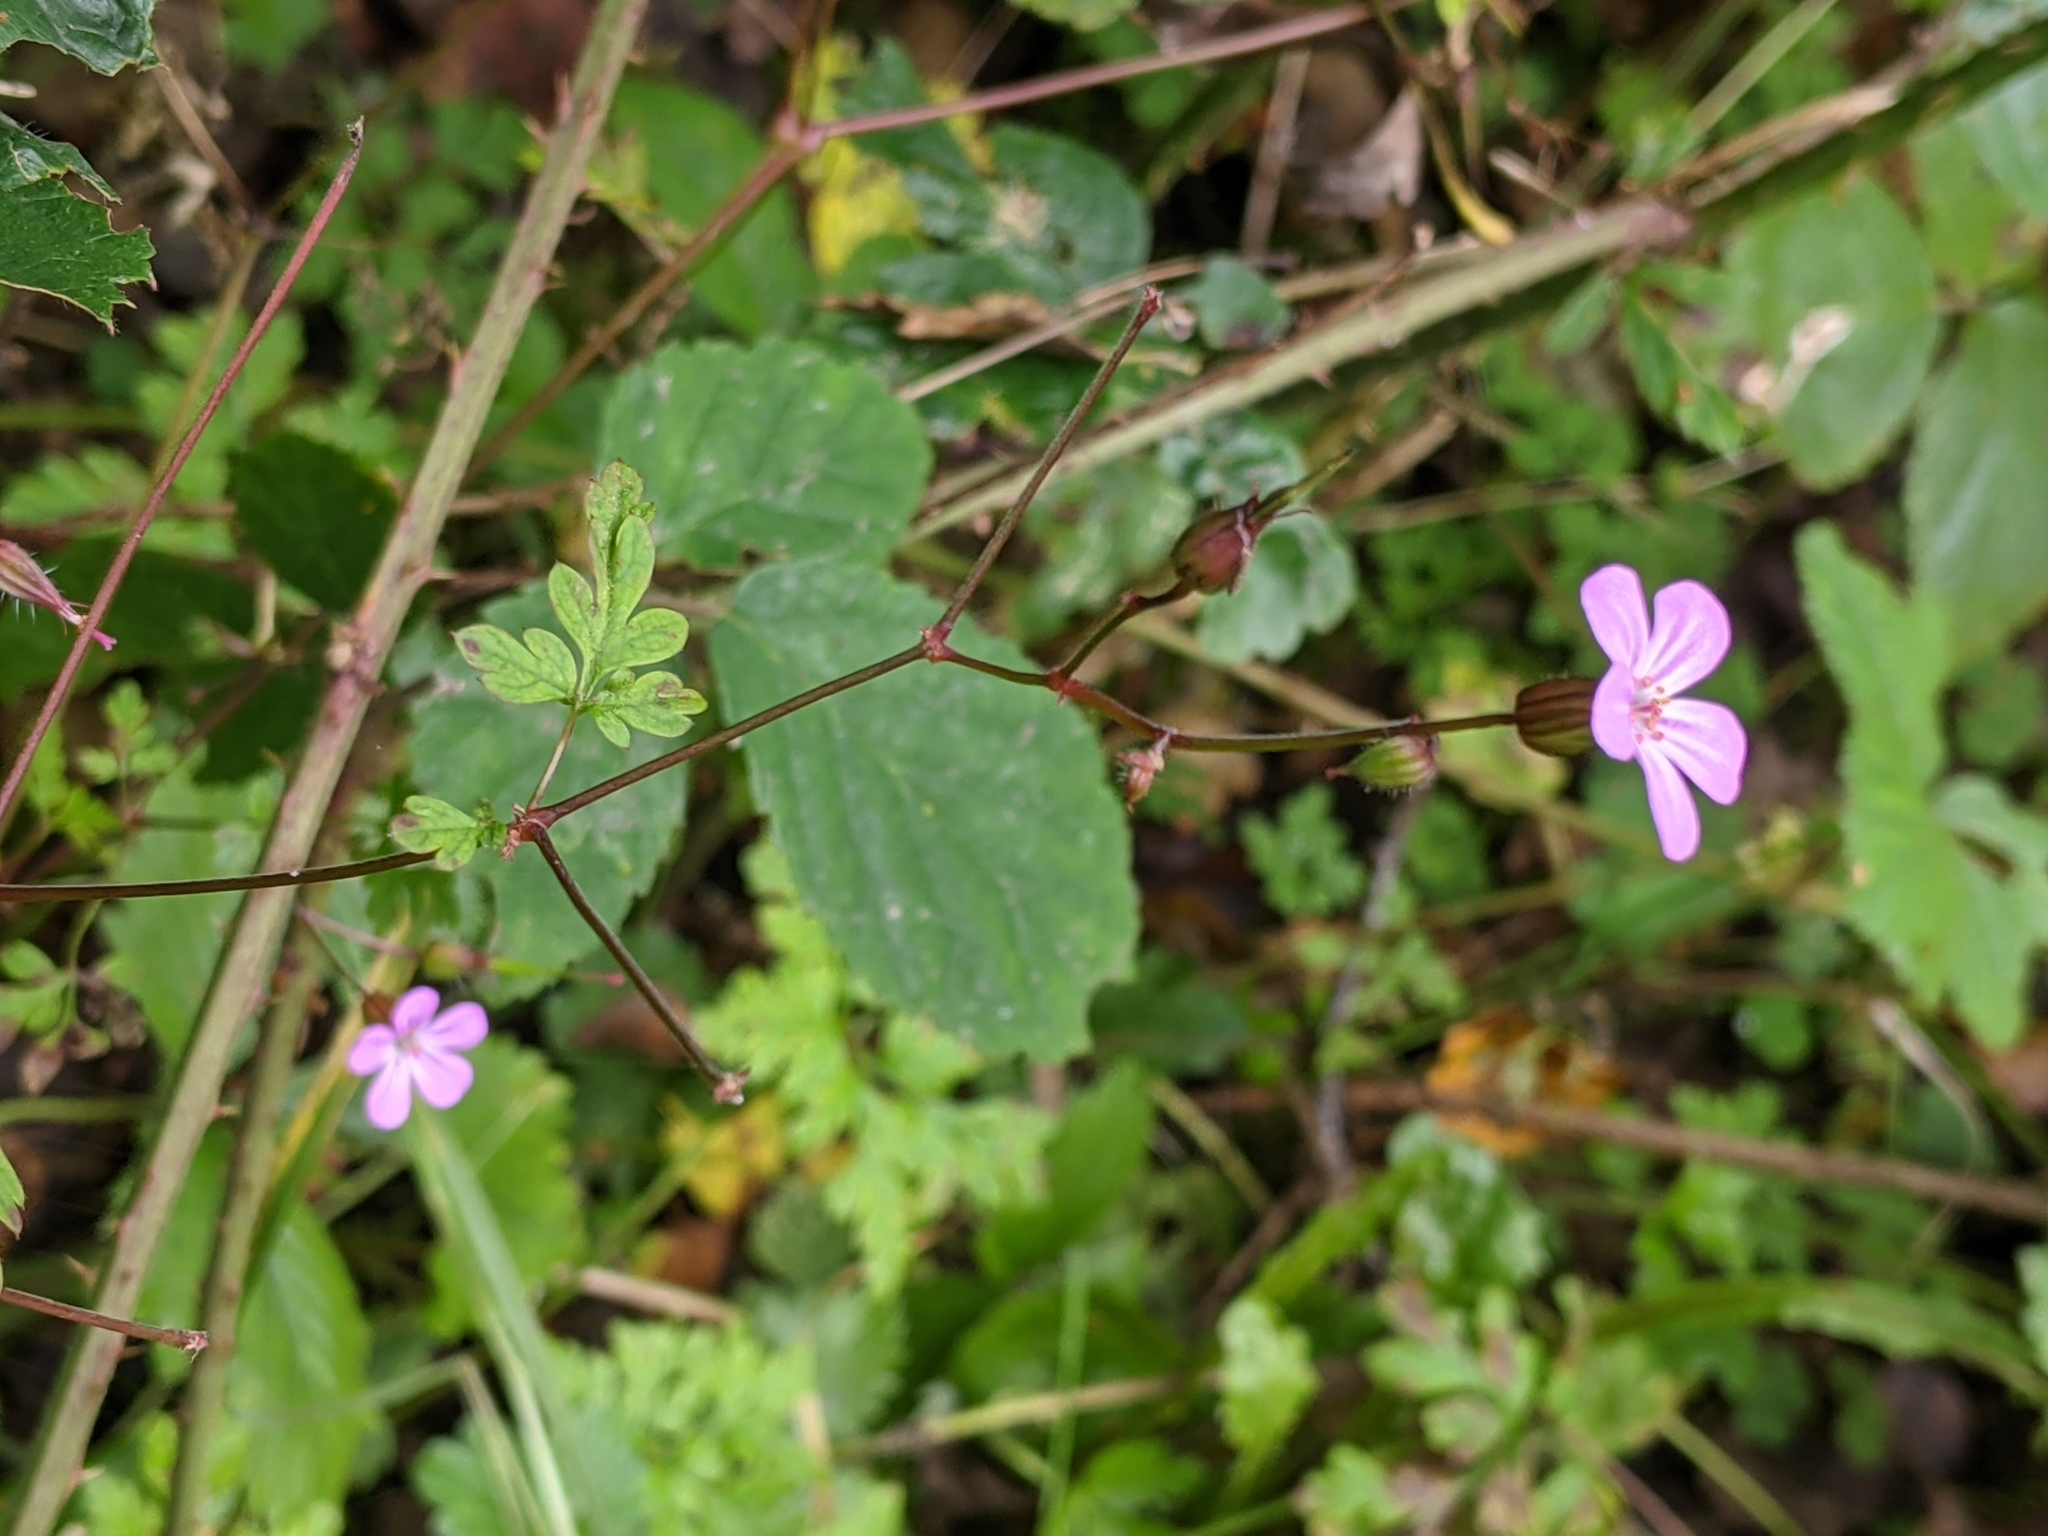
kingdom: Plantae
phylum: Tracheophyta
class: Magnoliopsida
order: Geraniales
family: Geraniaceae
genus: Geranium
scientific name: Geranium robertianum
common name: Herb-robert
